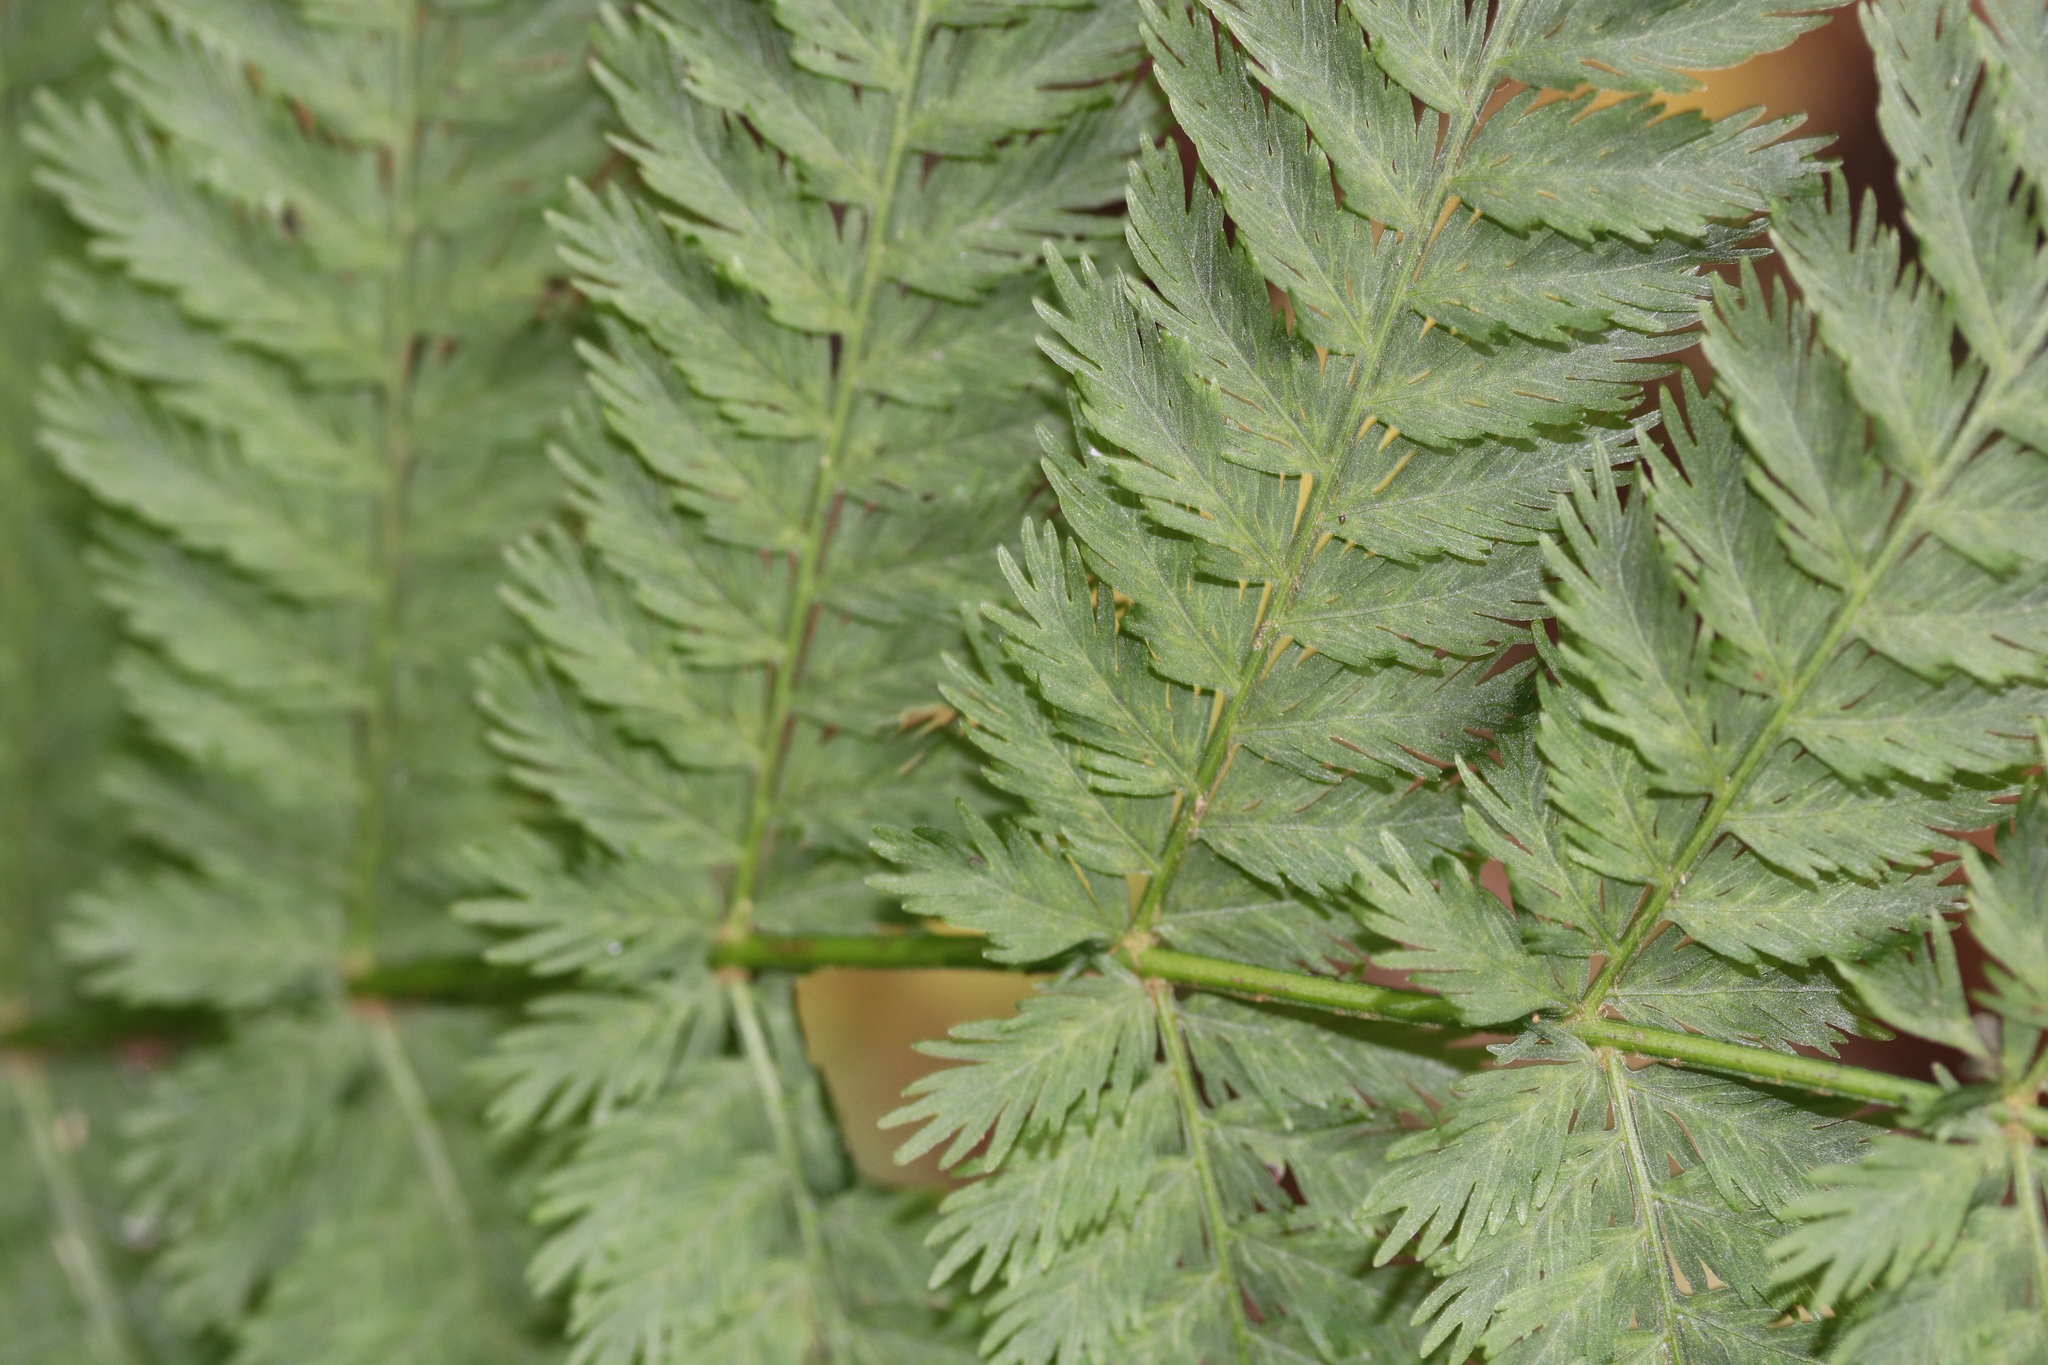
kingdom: Plantae
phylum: Tracheophyta
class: Polypodiopsida
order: Osmundales
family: Osmundaceae
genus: Leptopteris
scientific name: Leptopteris hymenophylloides
